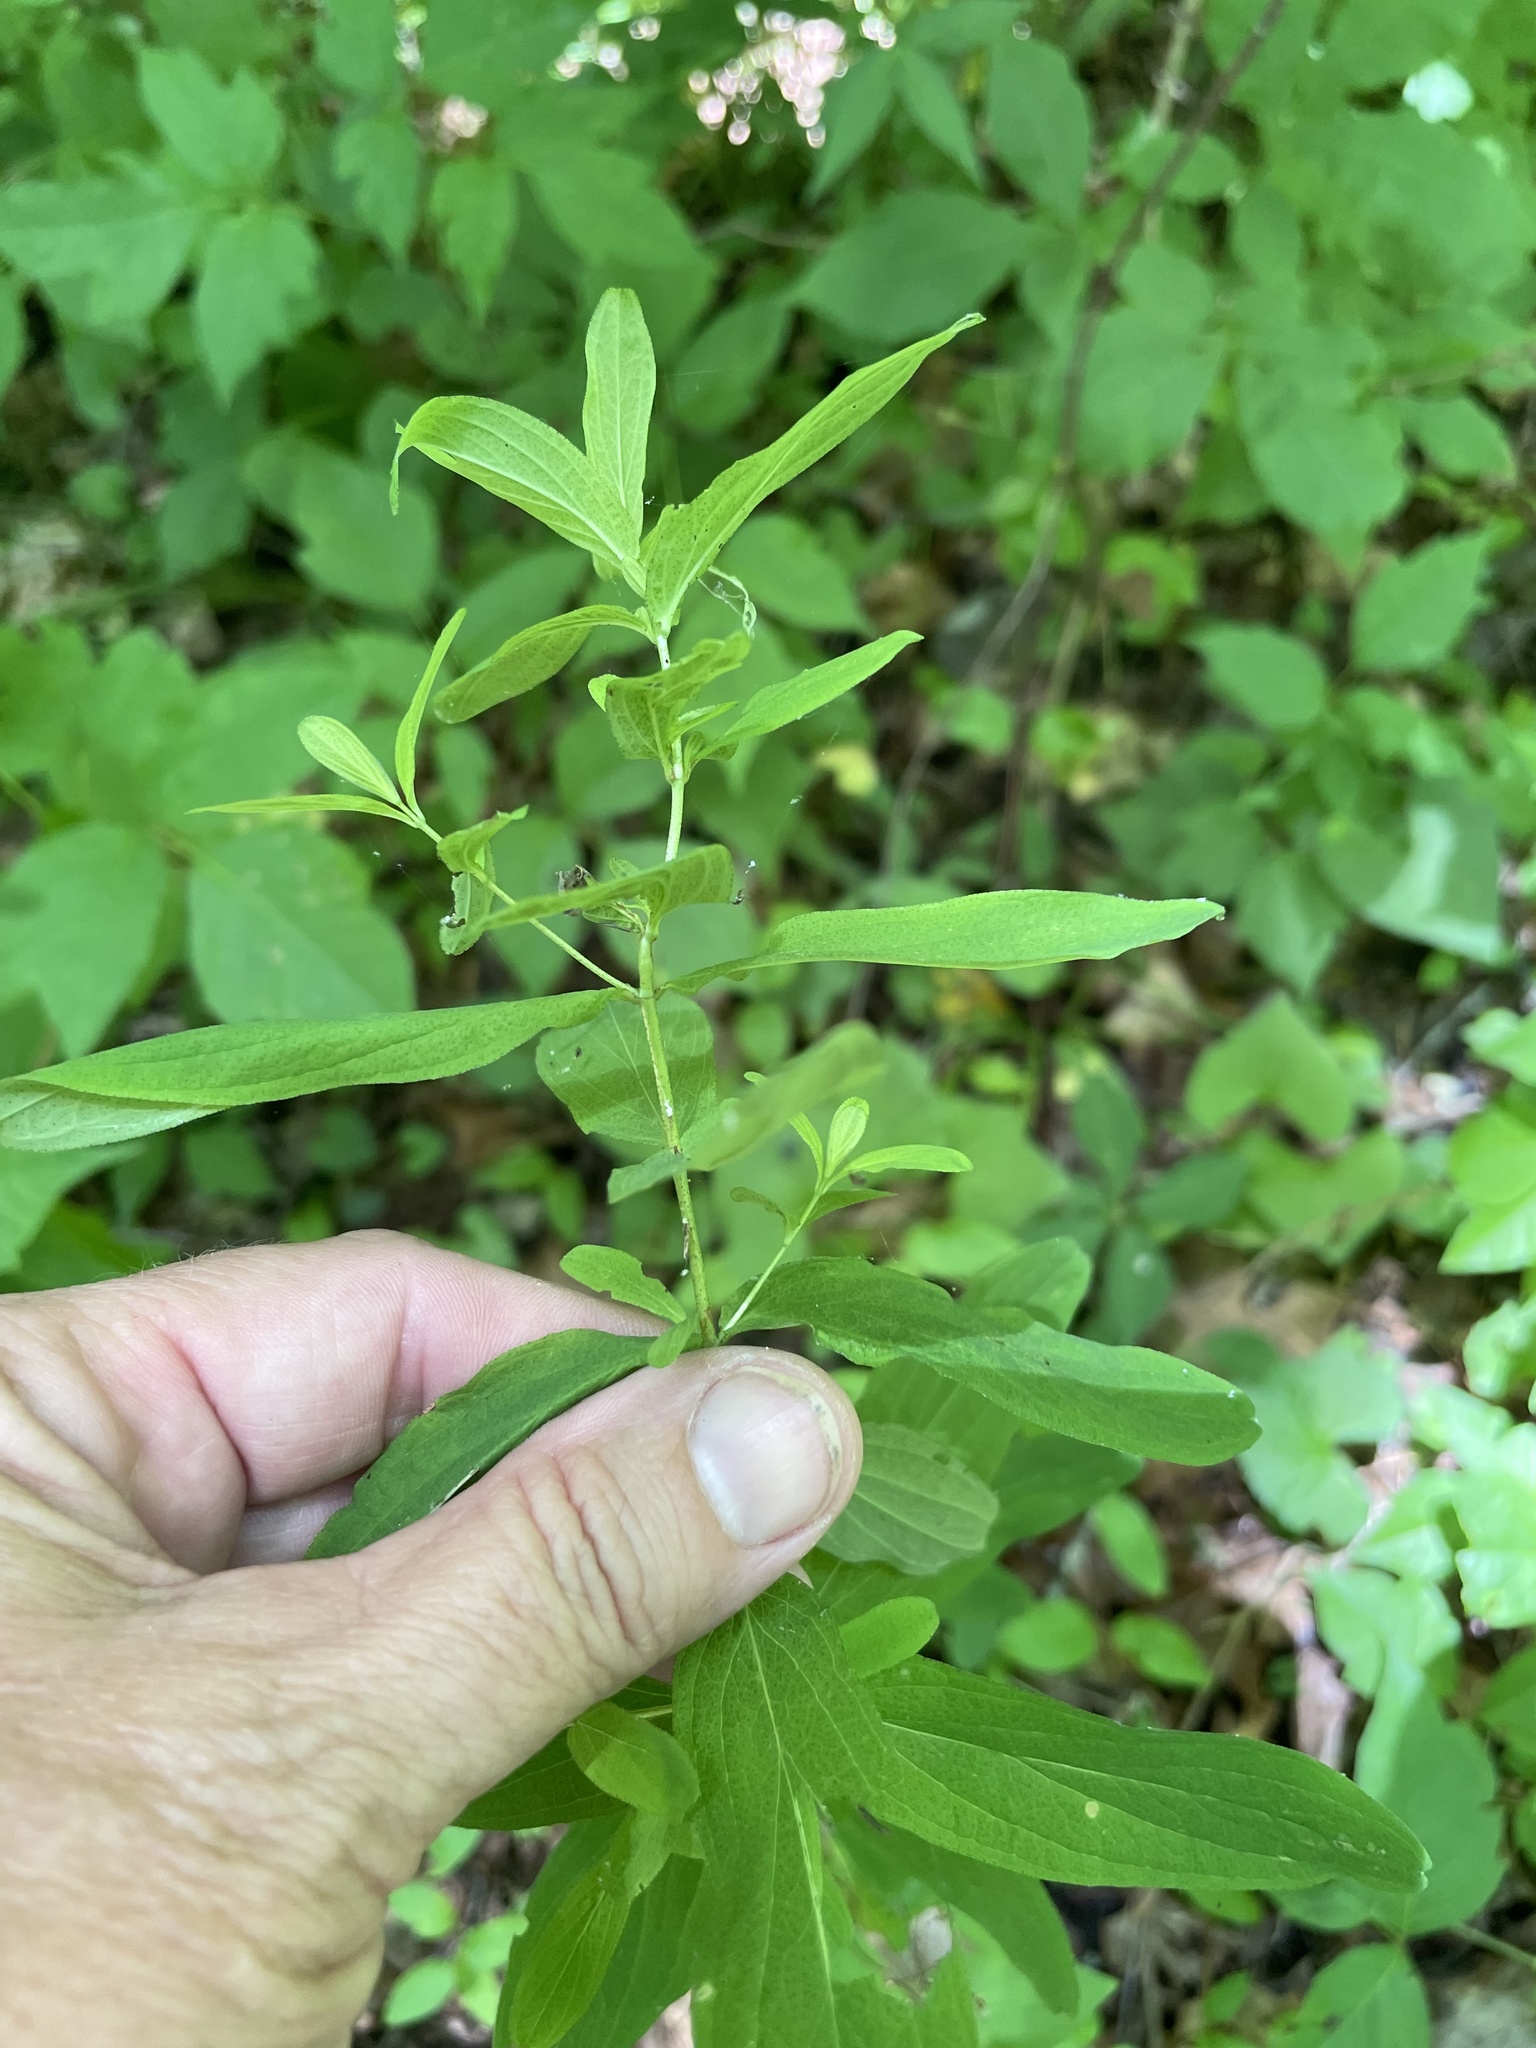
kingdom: Plantae
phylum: Tracheophyta
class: Magnoliopsida
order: Malpighiales
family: Hypericaceae
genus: Hypericum
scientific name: Hypericum punctatum
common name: Spotted st. john's-wort
